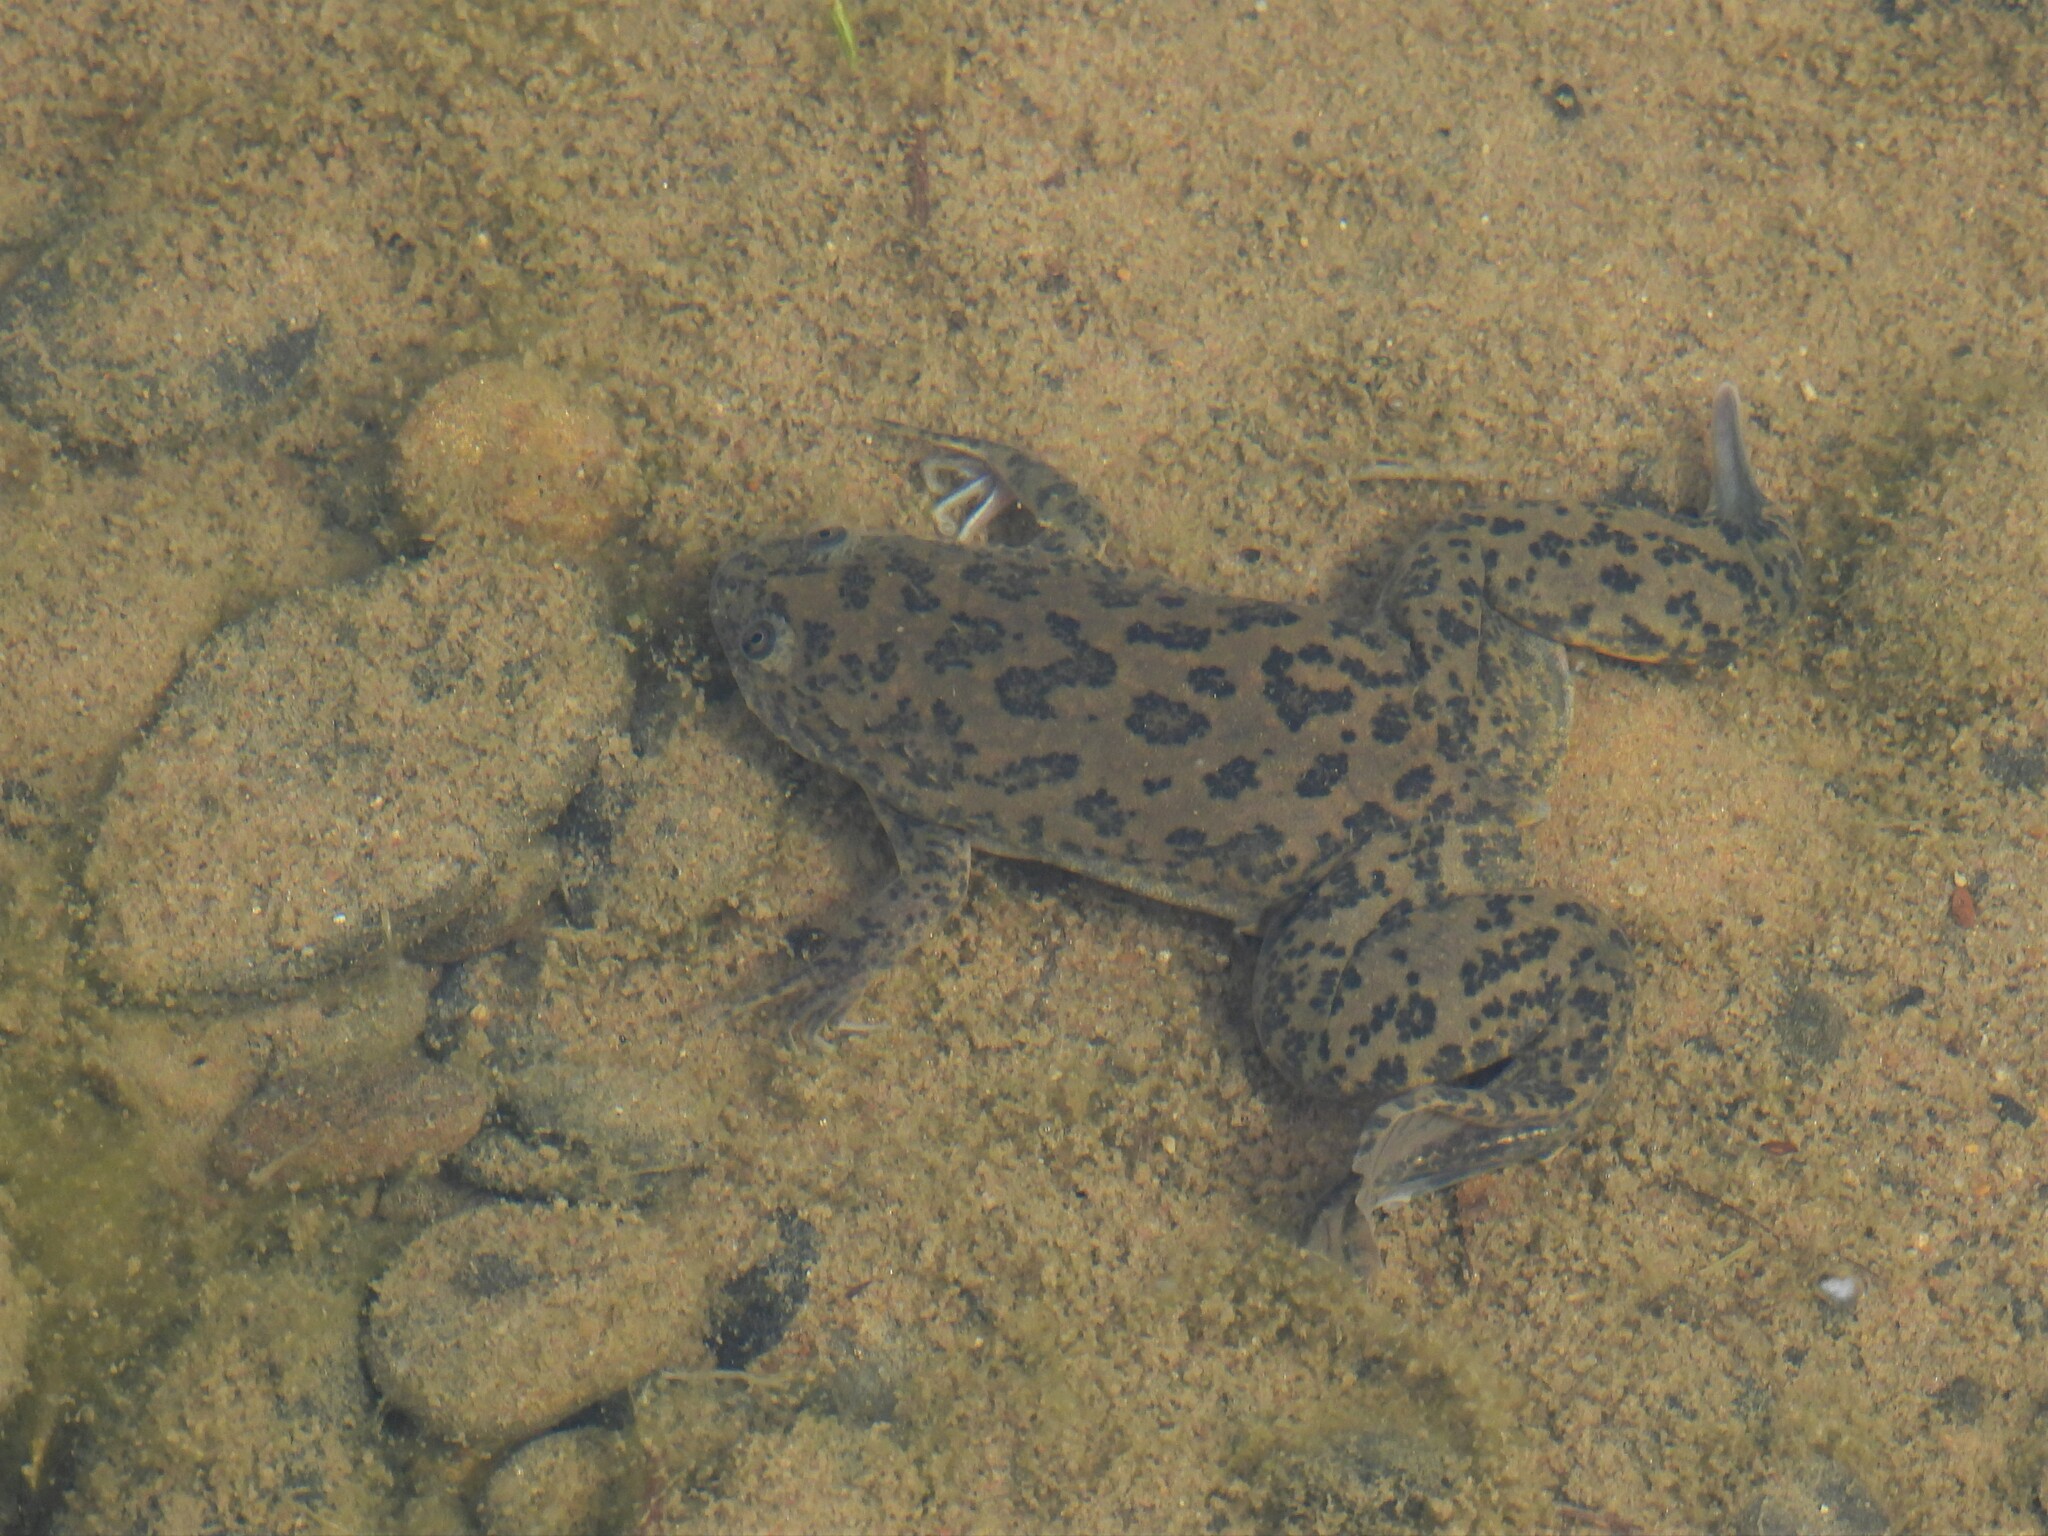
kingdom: Animalia
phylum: Chordata
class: Amphibia
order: Anura
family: Pipidae
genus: Xenopus
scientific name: Xenopus laevis
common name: African clawed frog
